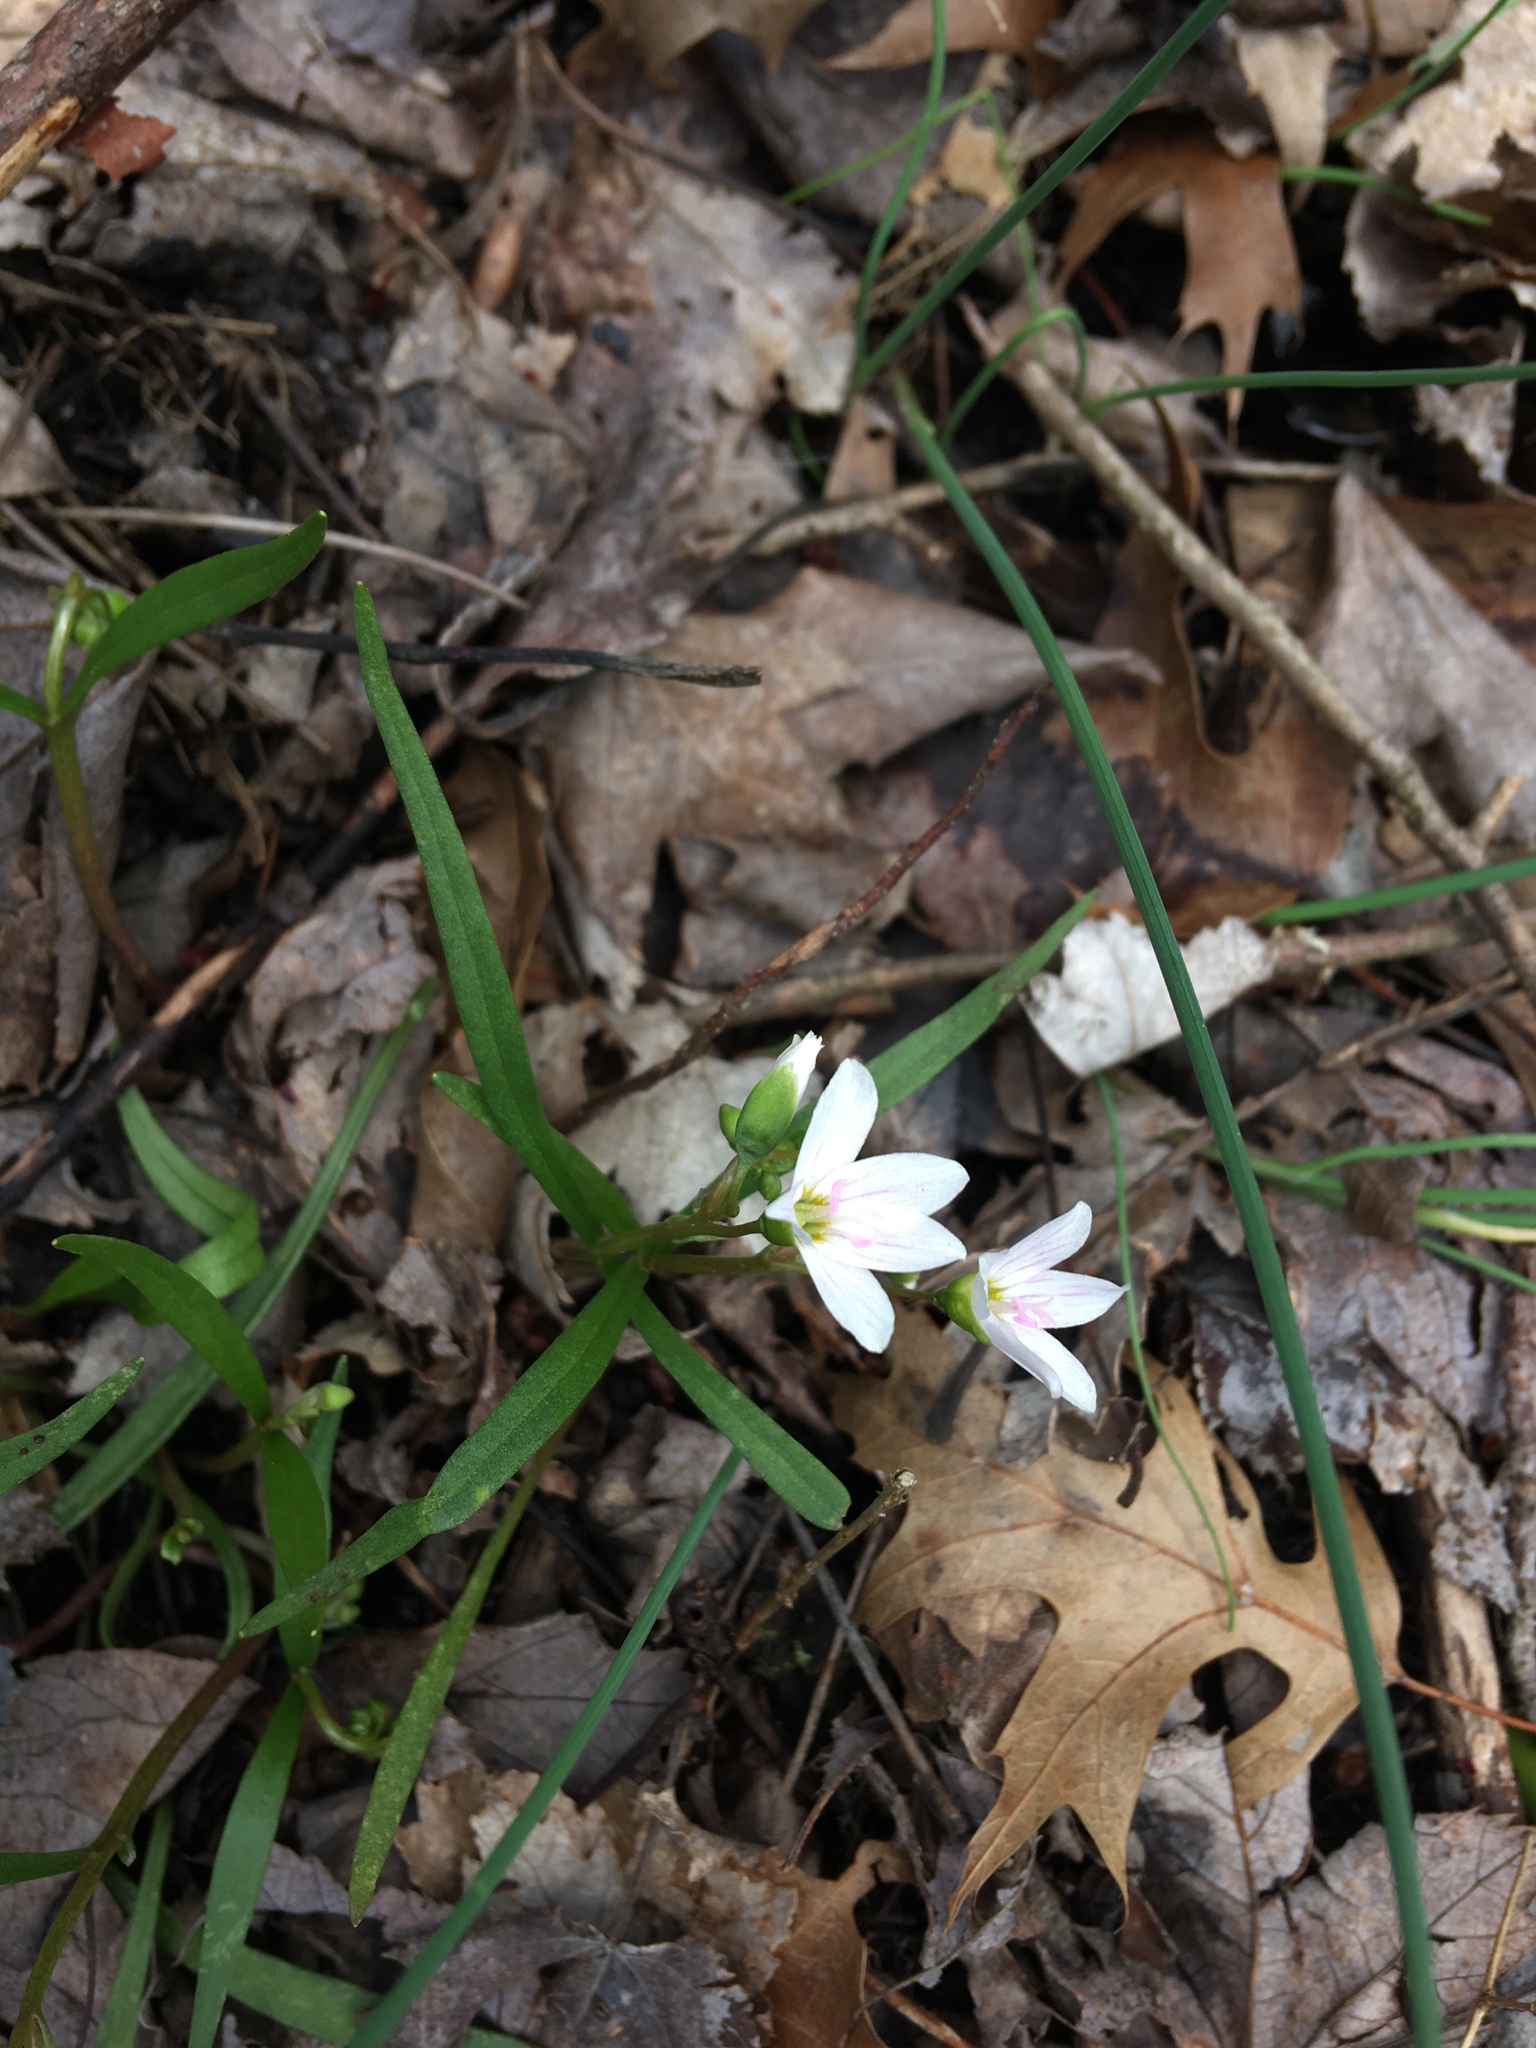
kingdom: Plantae
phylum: Tracheophyta
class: Magnoliopsida
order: Caryophyllales
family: Montiaceae
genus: Claytonia
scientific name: Claytonia virginica
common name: Virginia springbeauty
